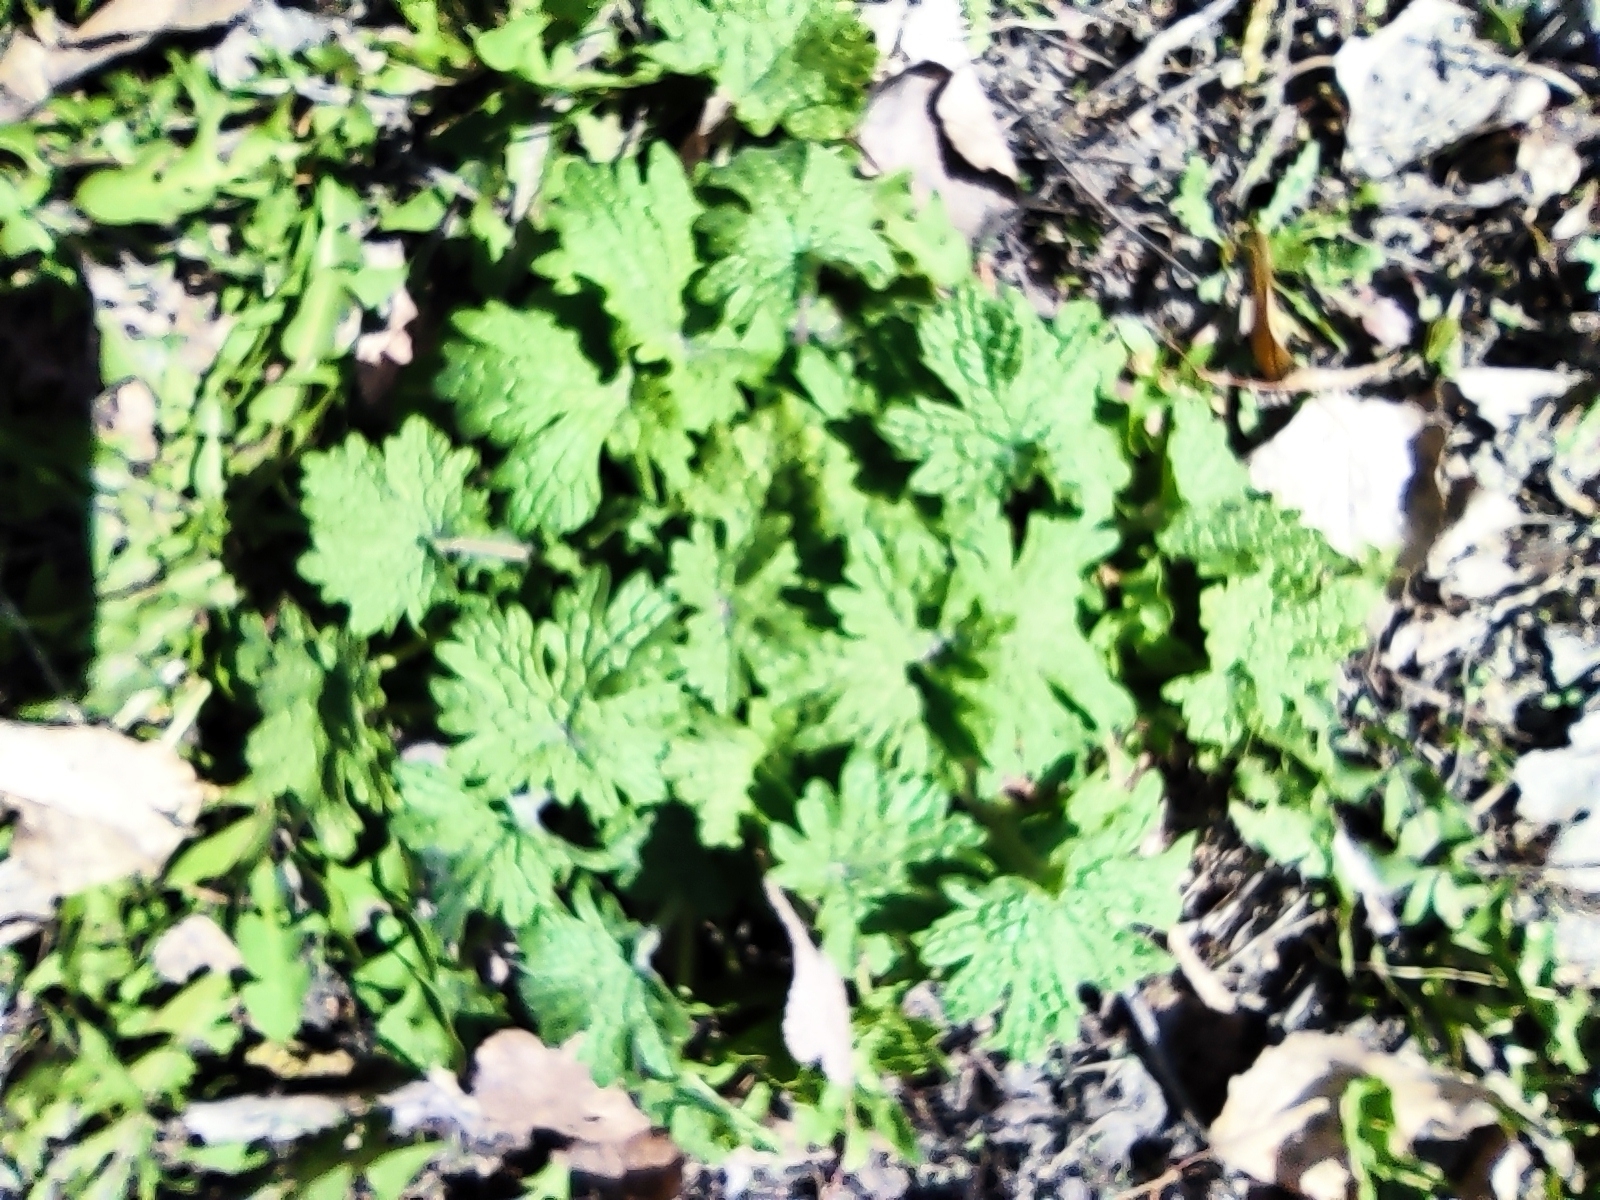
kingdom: Plantae
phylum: Tracheophyta
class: Magnoliopsida
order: Lamiales
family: Lamiaceae
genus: Leonurus
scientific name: Leonurus quinquelobatus
